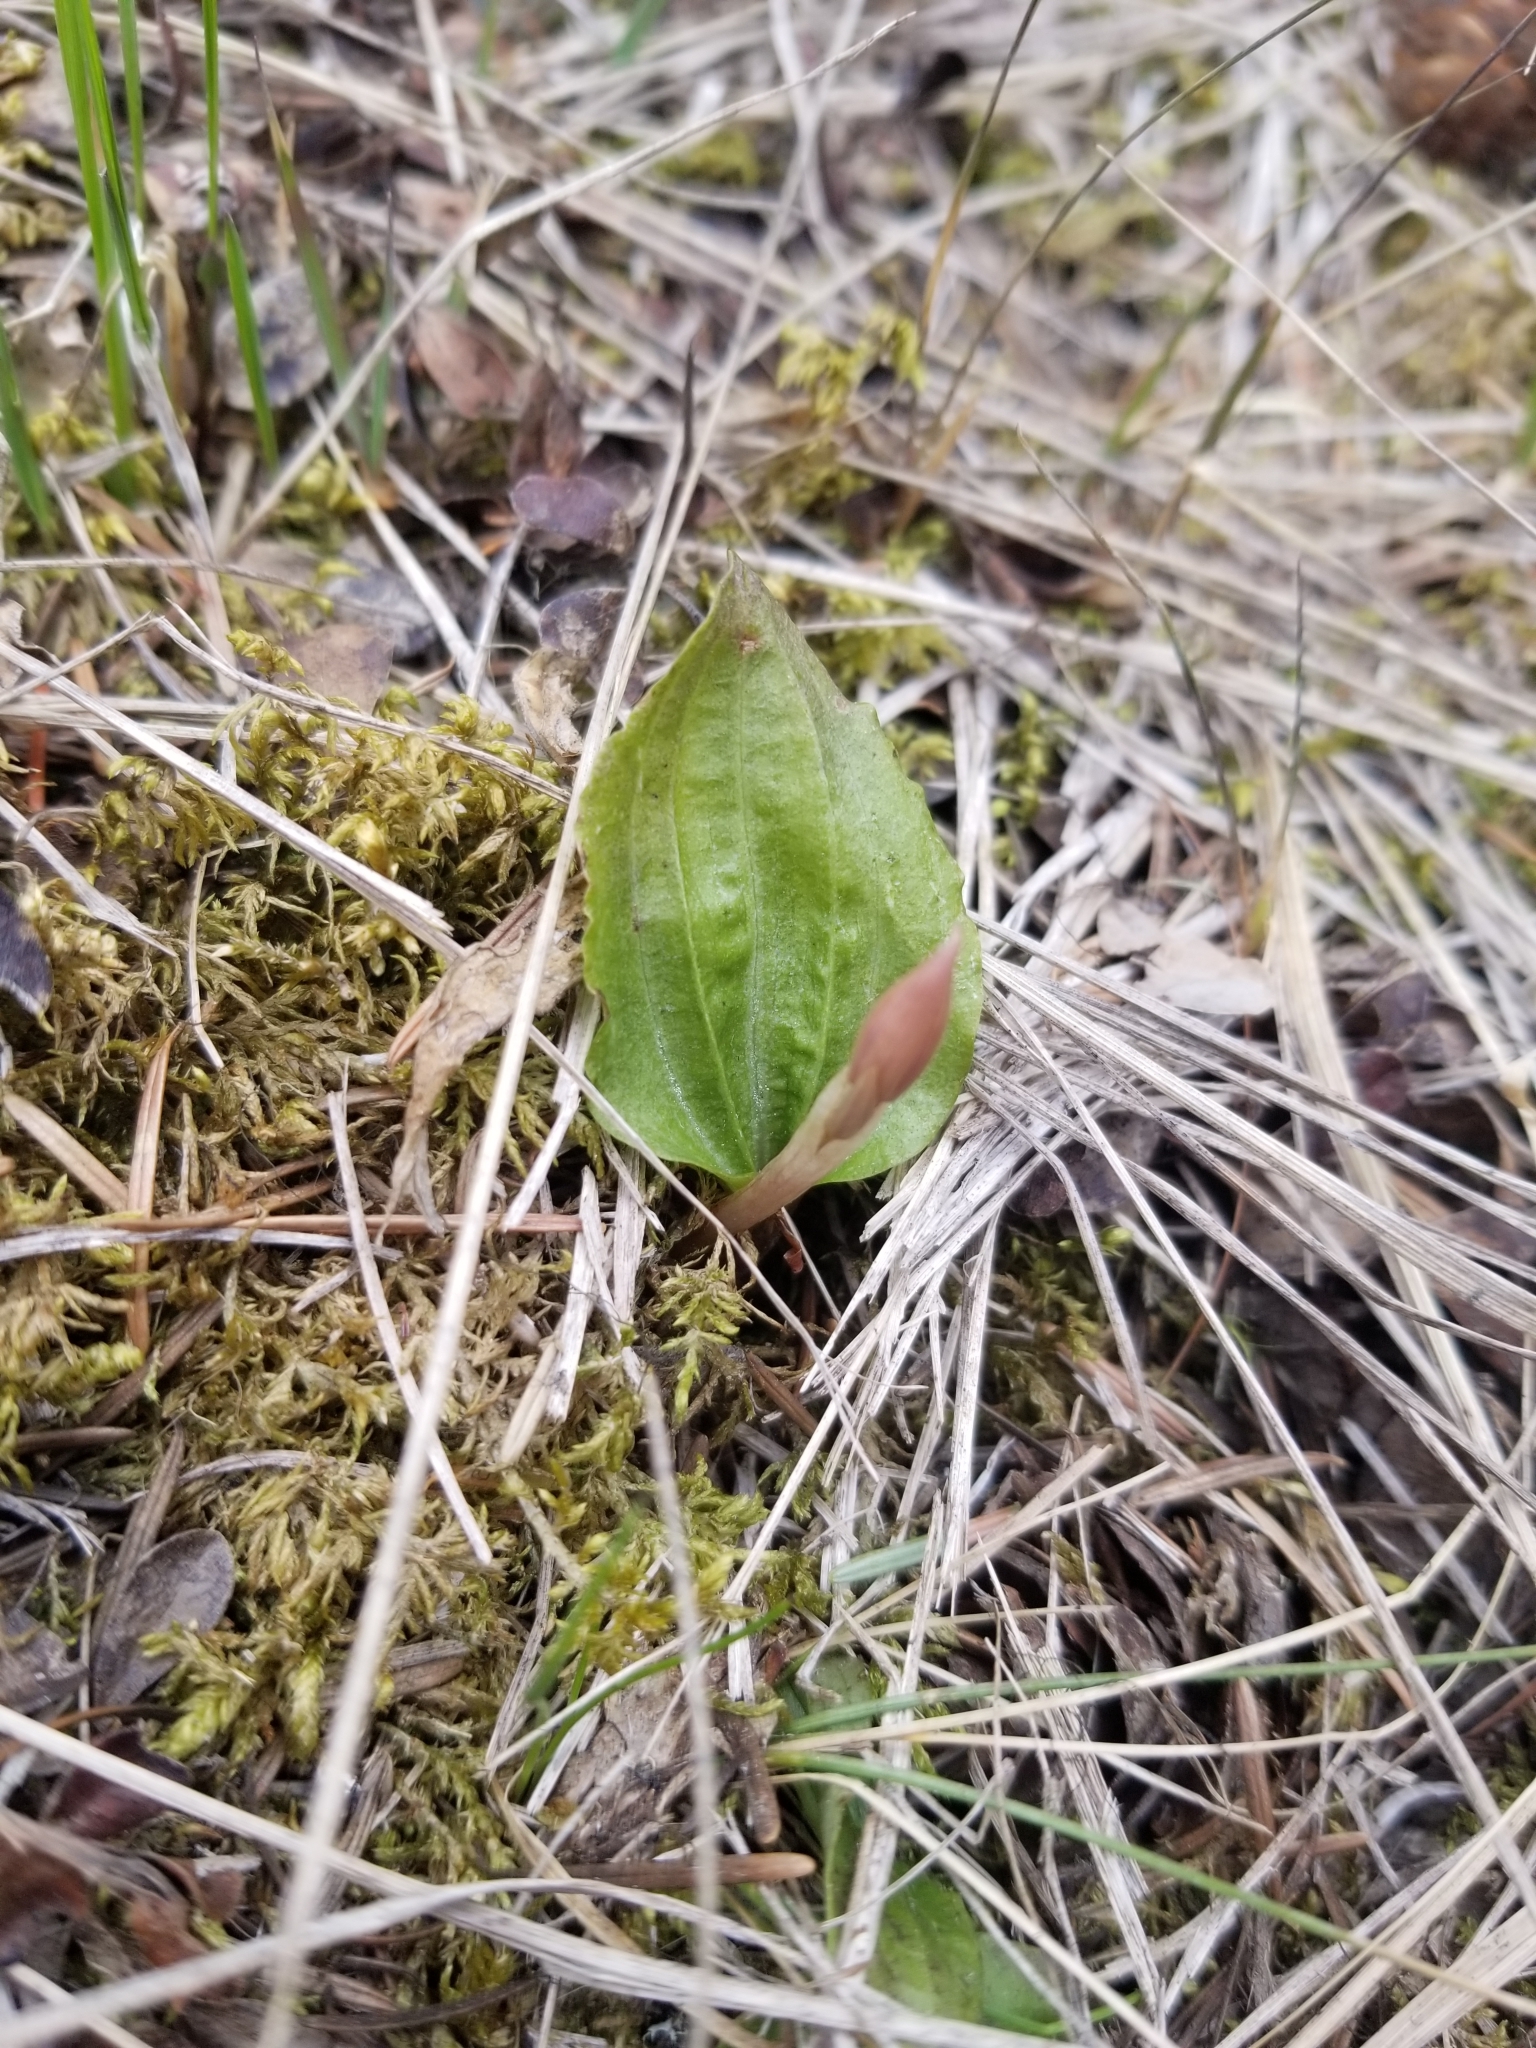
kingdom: Plantae
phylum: Tracheophyta
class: Liliopsida
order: Asparagales
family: Orchidaceae
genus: Calypso
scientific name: Calypso bulbosa
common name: Calypso
